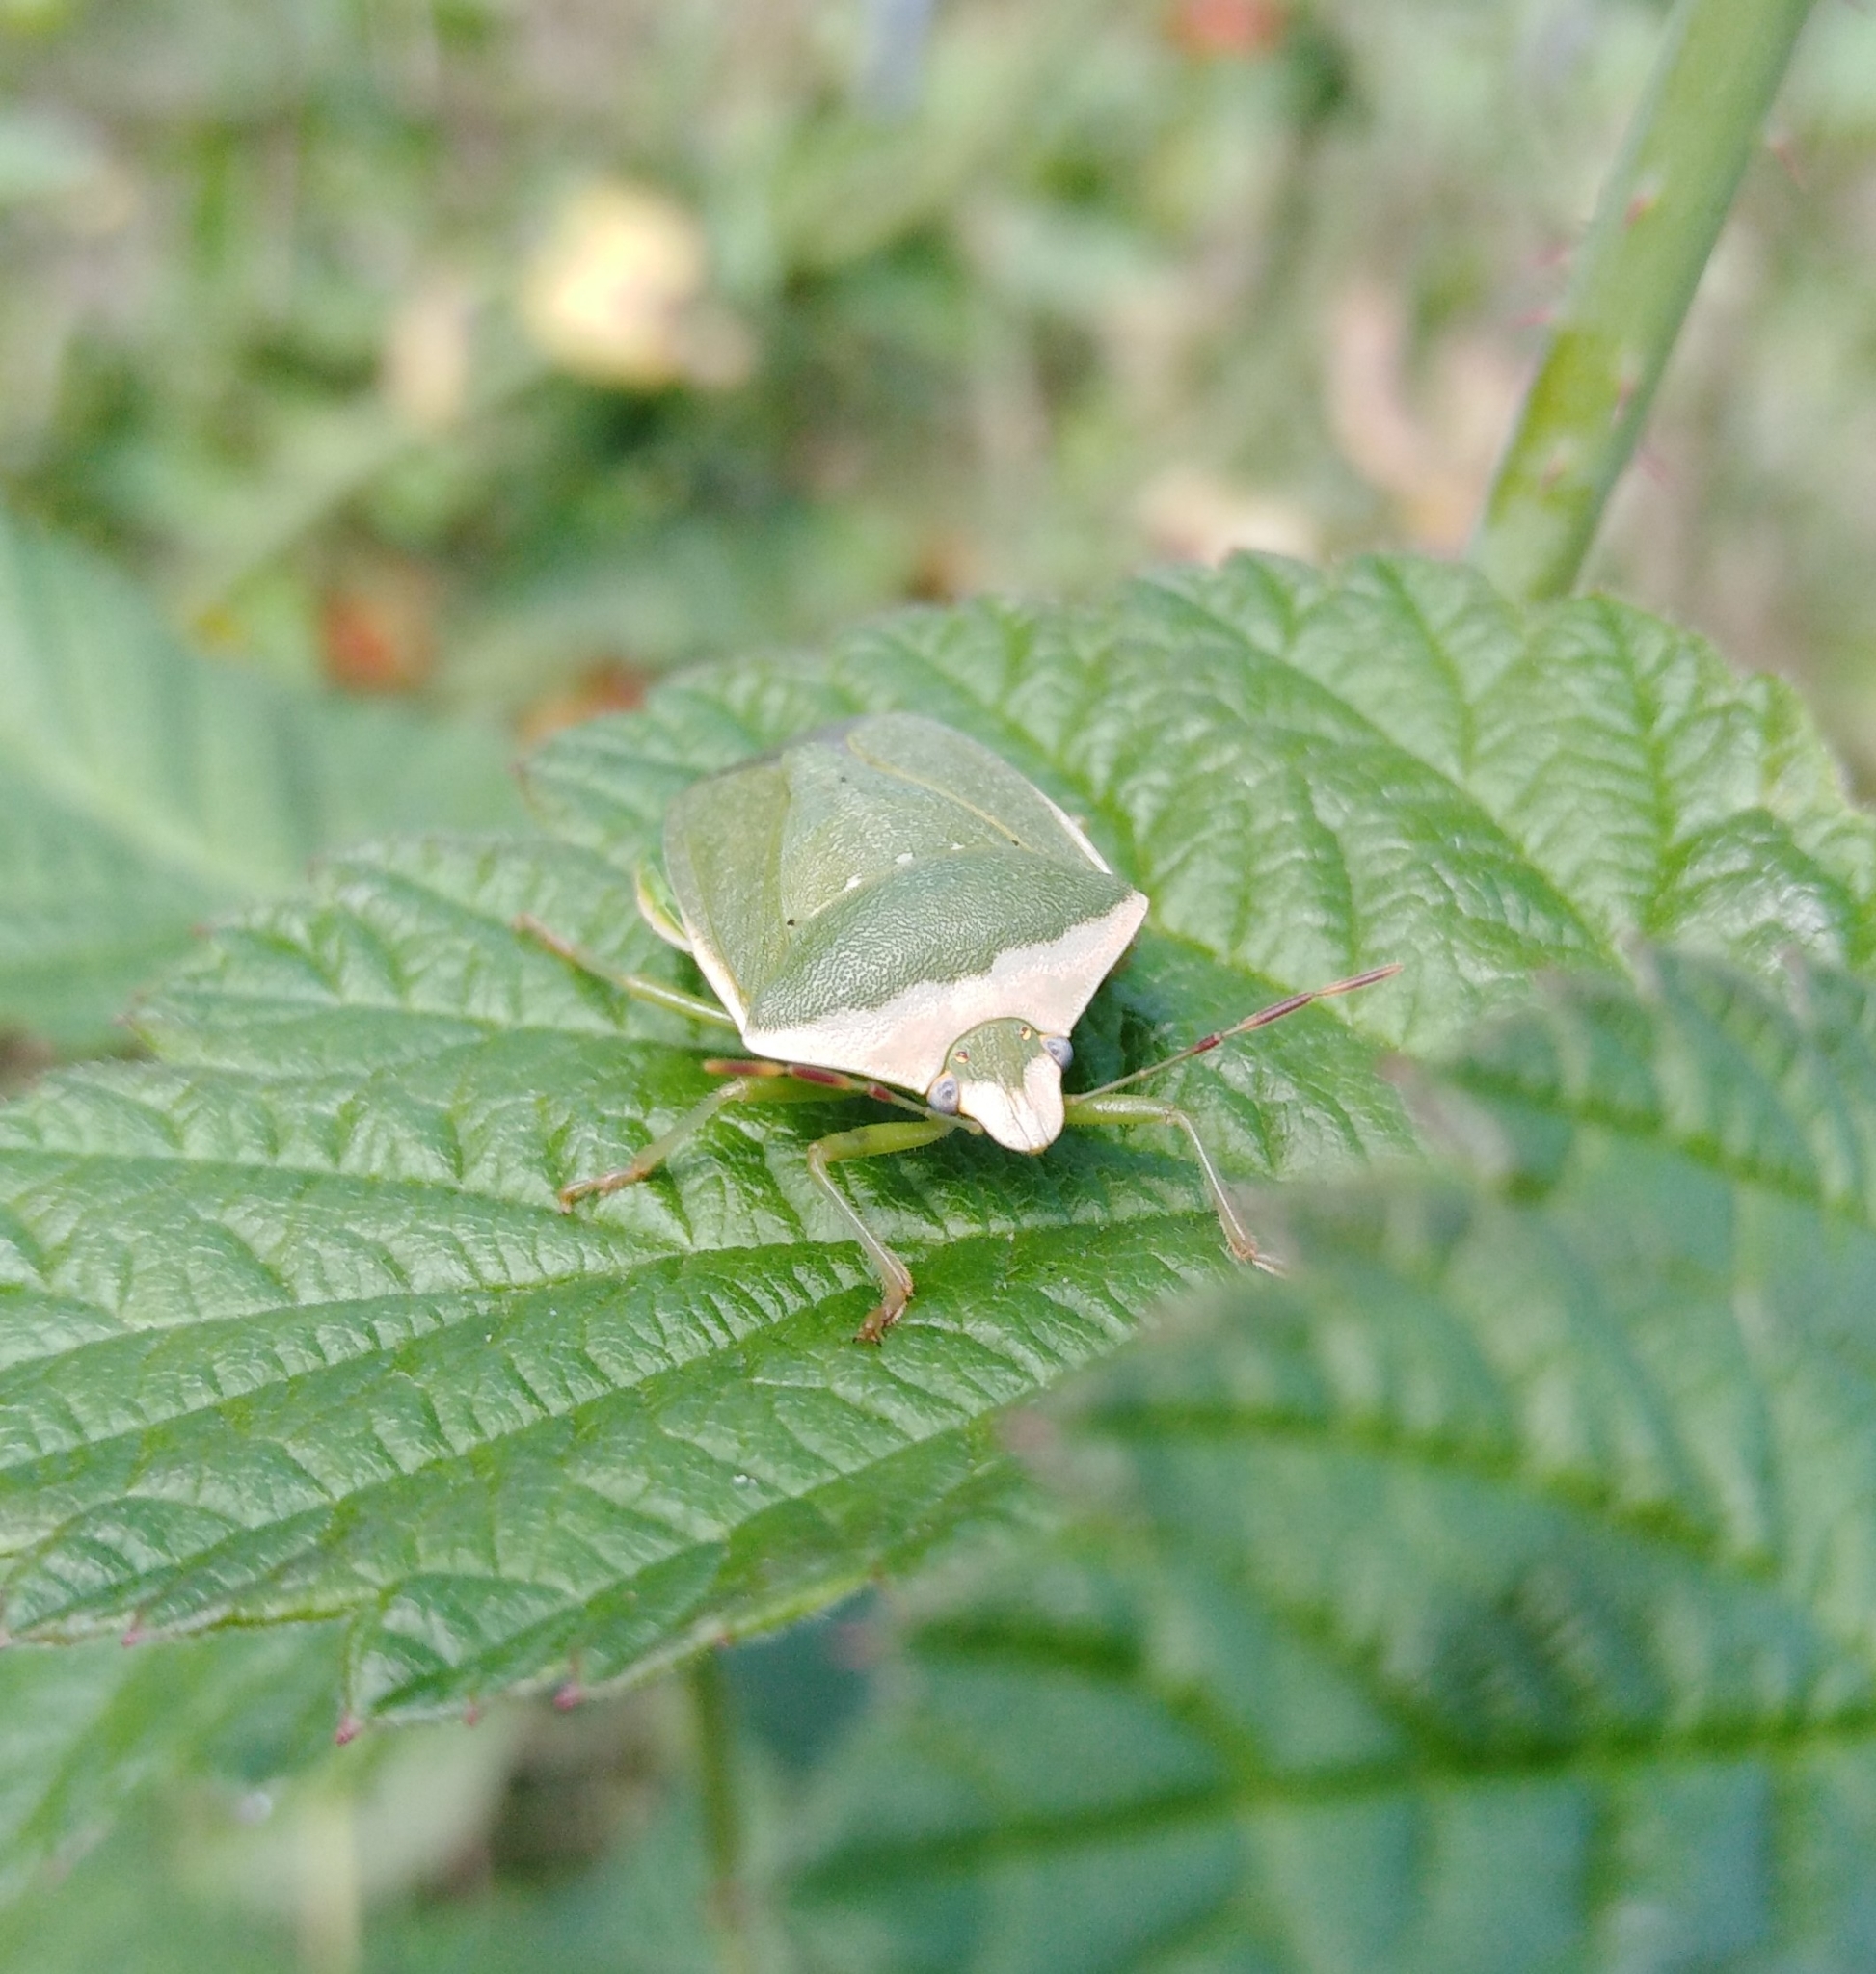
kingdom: Animalia
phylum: Arthropoda
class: Insecta
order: Hemiptera
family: Pentatomidae
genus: Nezara
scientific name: Nezara viridula
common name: Southern green stink bug
